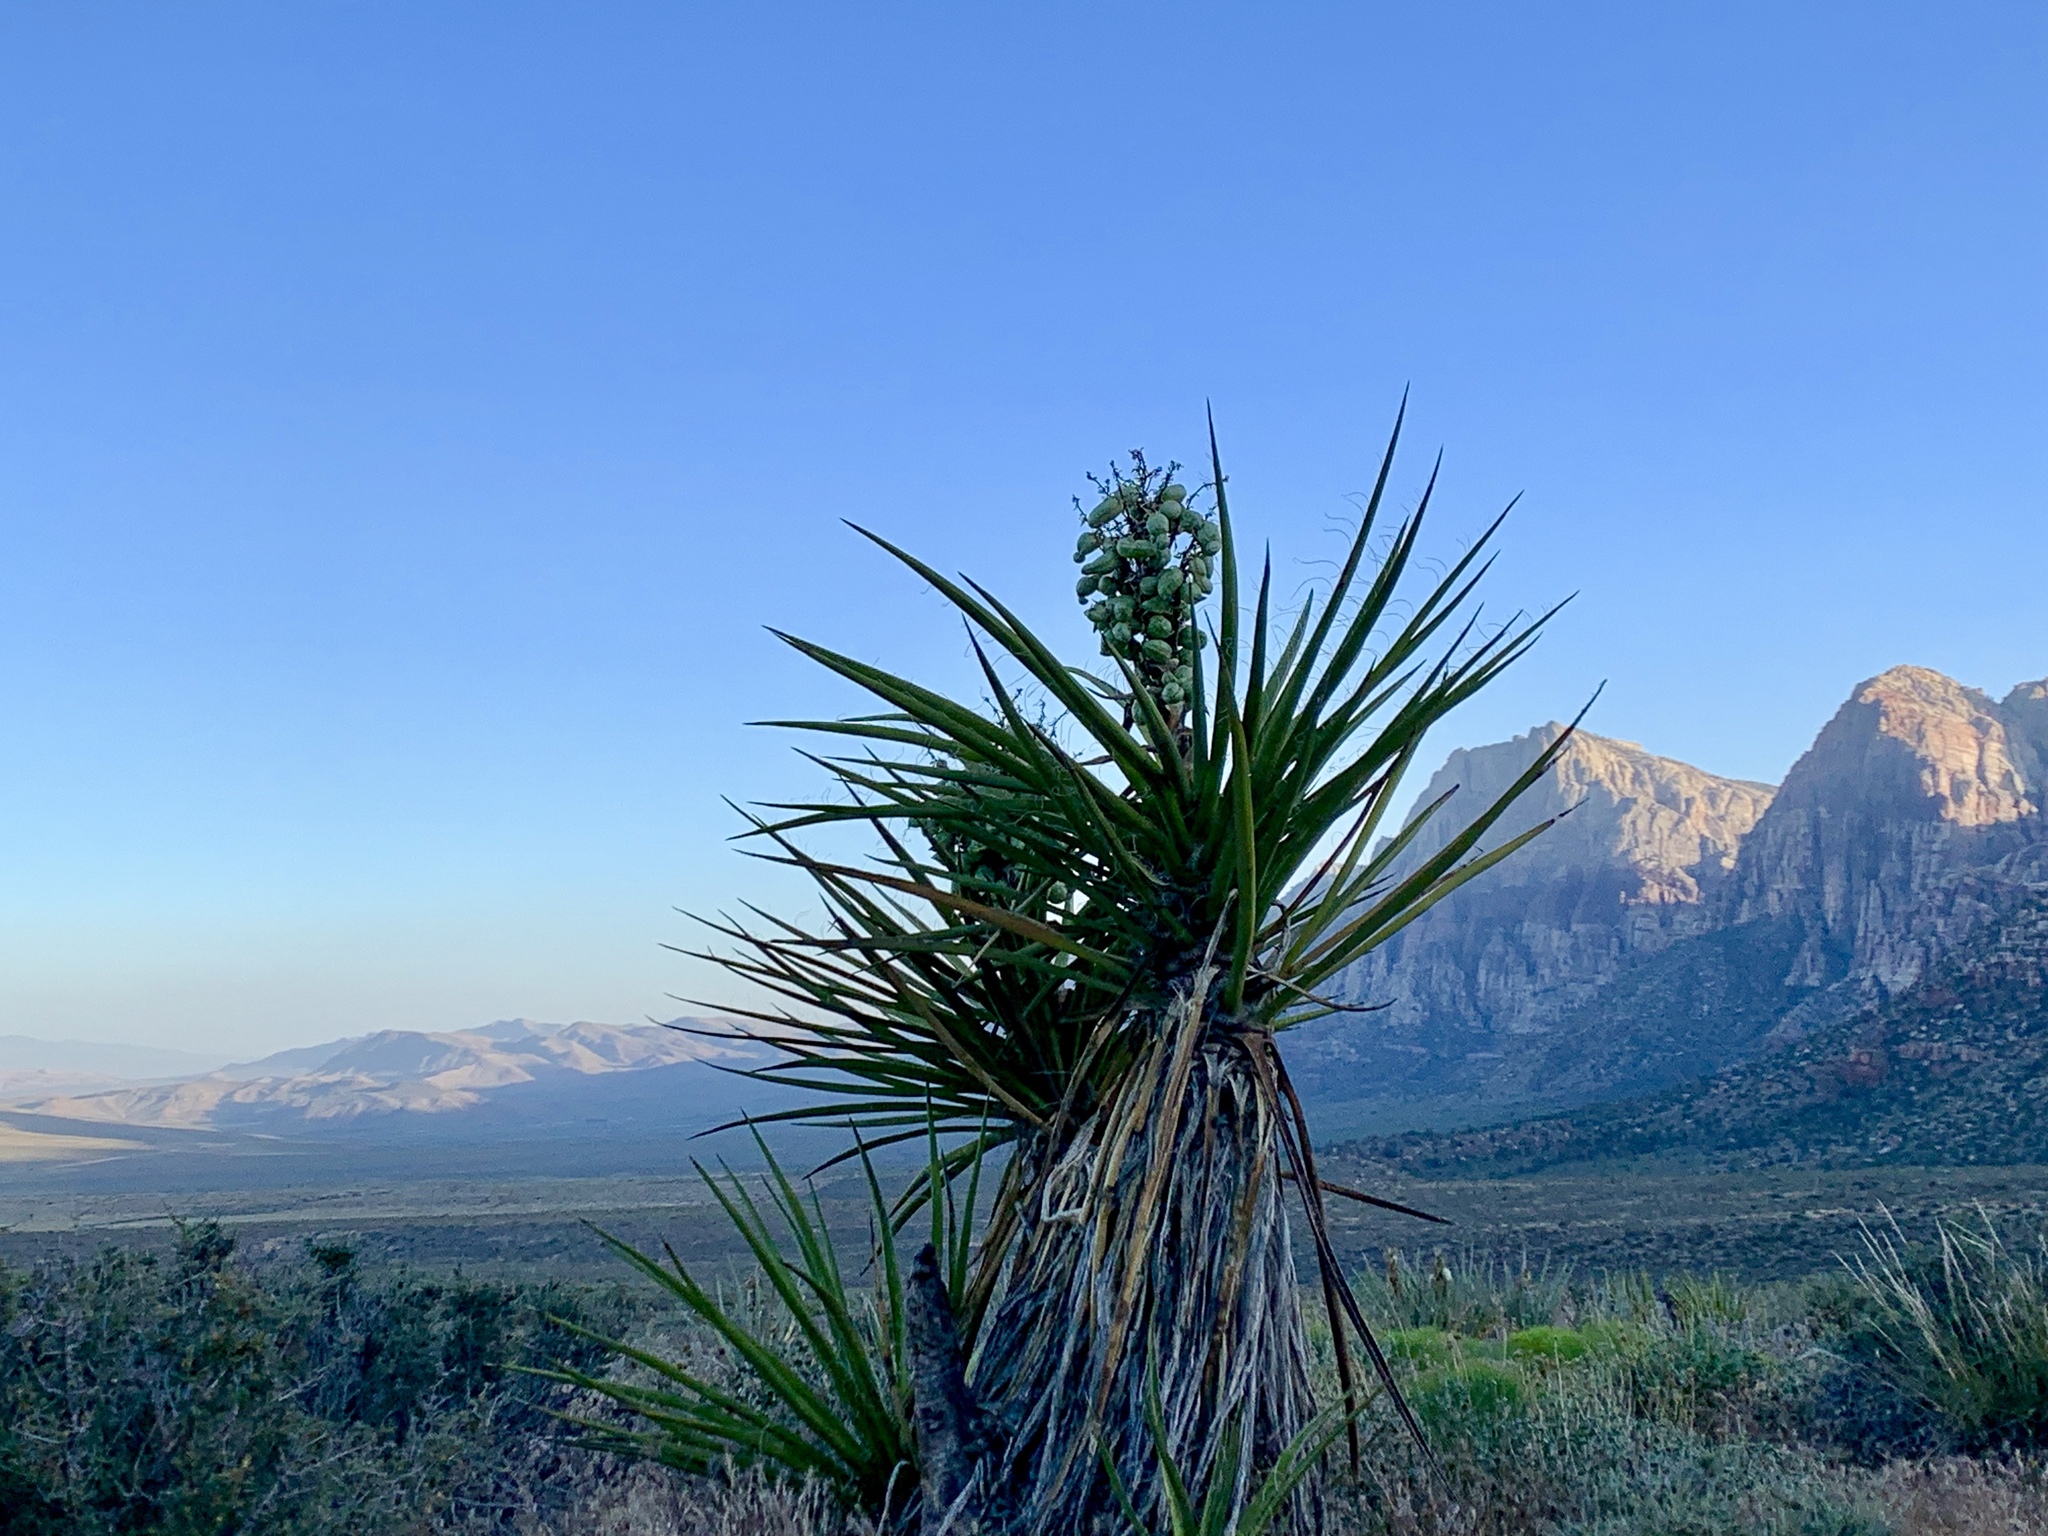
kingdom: Plantae
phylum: Tracheophyta
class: Liliopsida
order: Asparagales
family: Asparagaceae
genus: Yucca
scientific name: Yucca schidigera
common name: Mojave yucca
